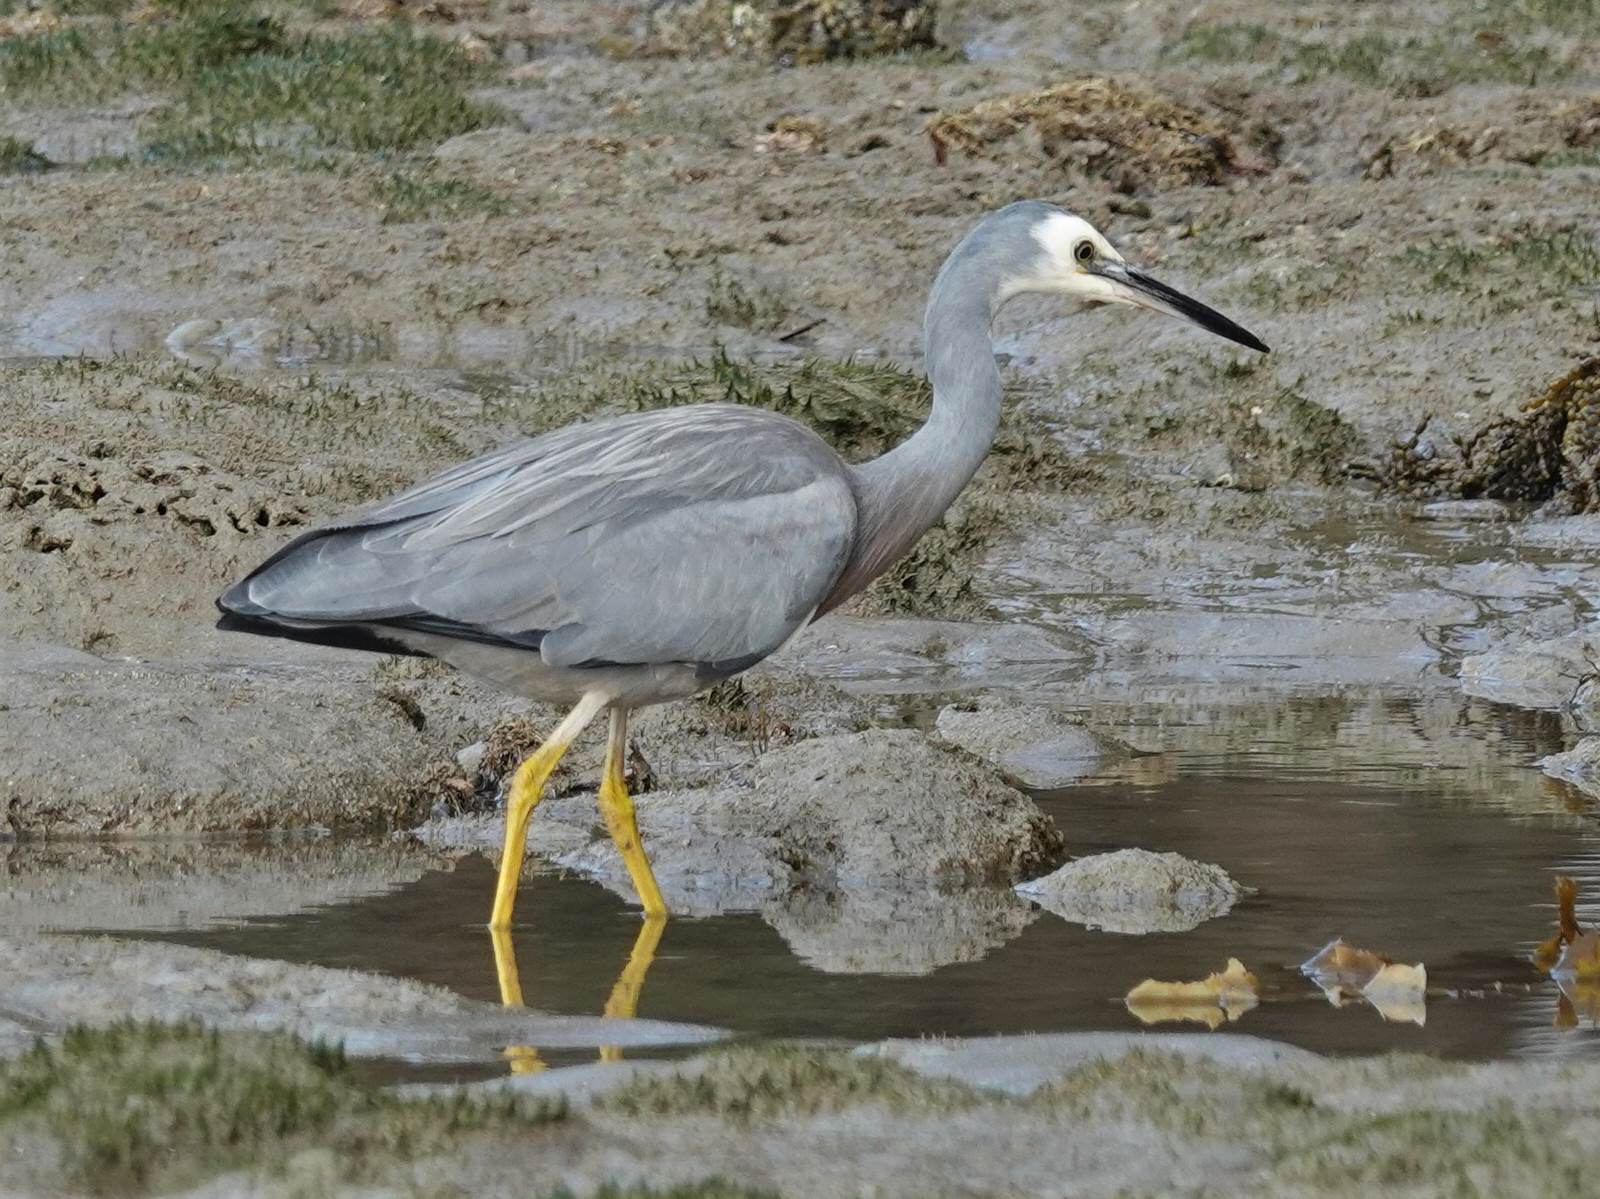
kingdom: Animalia
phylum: Chordata
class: Aves
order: Pelecaniformes
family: Ardeidae
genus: Egretta
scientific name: Egretta novaehollandiae
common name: White-faced heron
